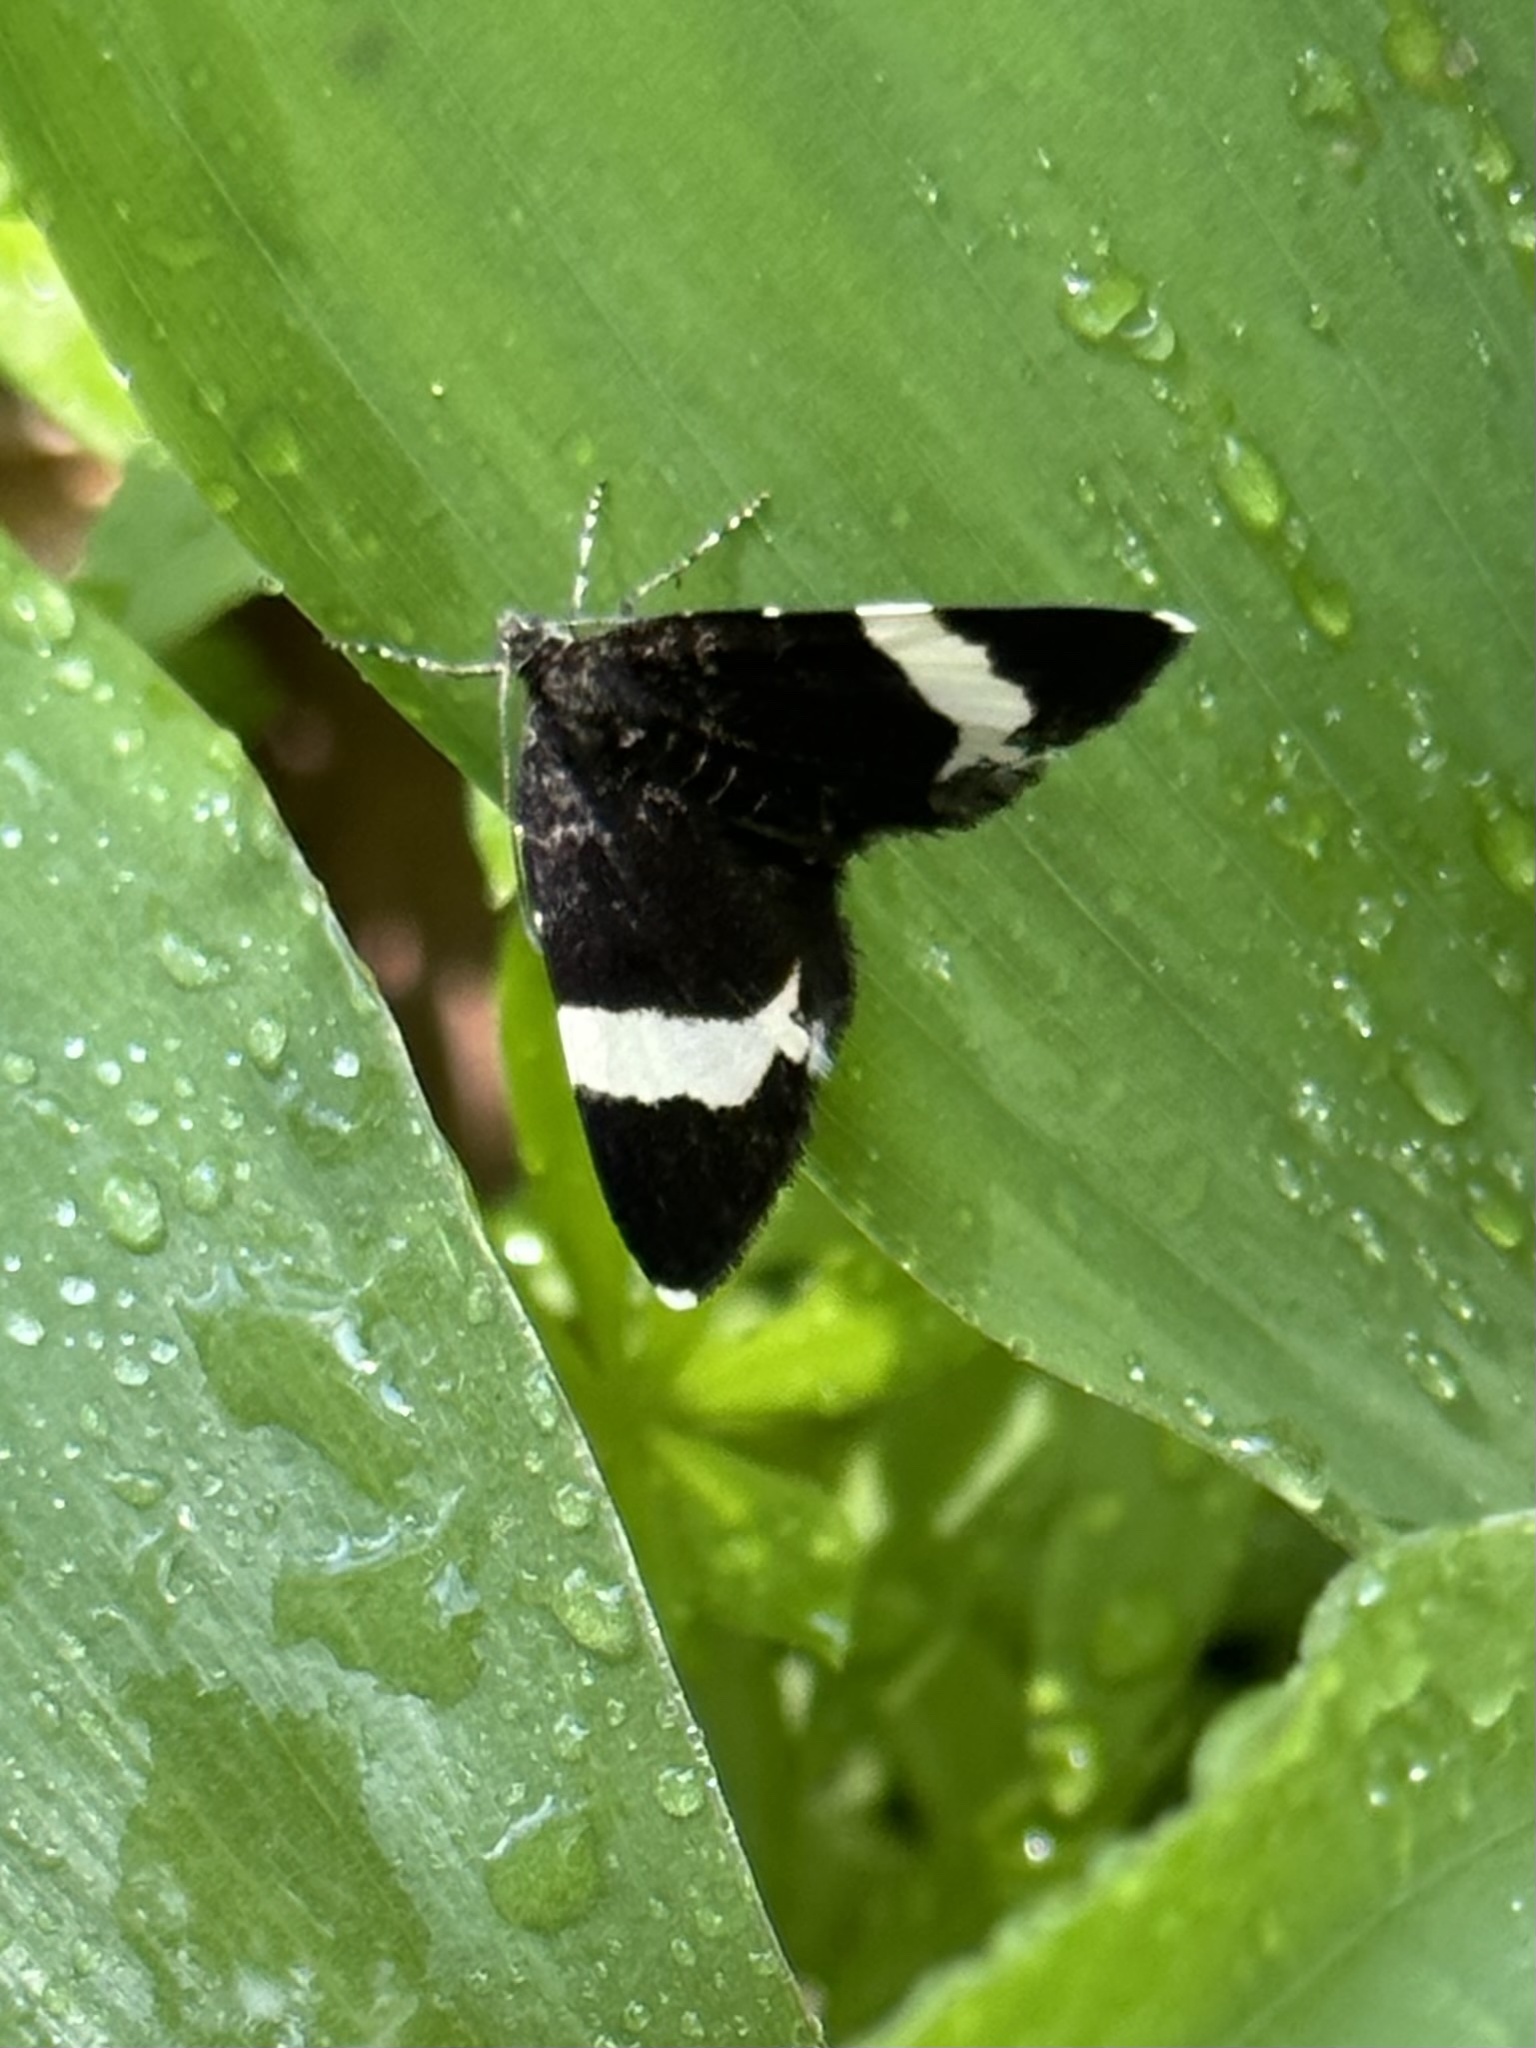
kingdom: Animalia
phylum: Arthropoda
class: Insecta
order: Lepidoptera
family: Geometridae
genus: Trichodezia
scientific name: Trichodezia albovittata
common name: White striped black
